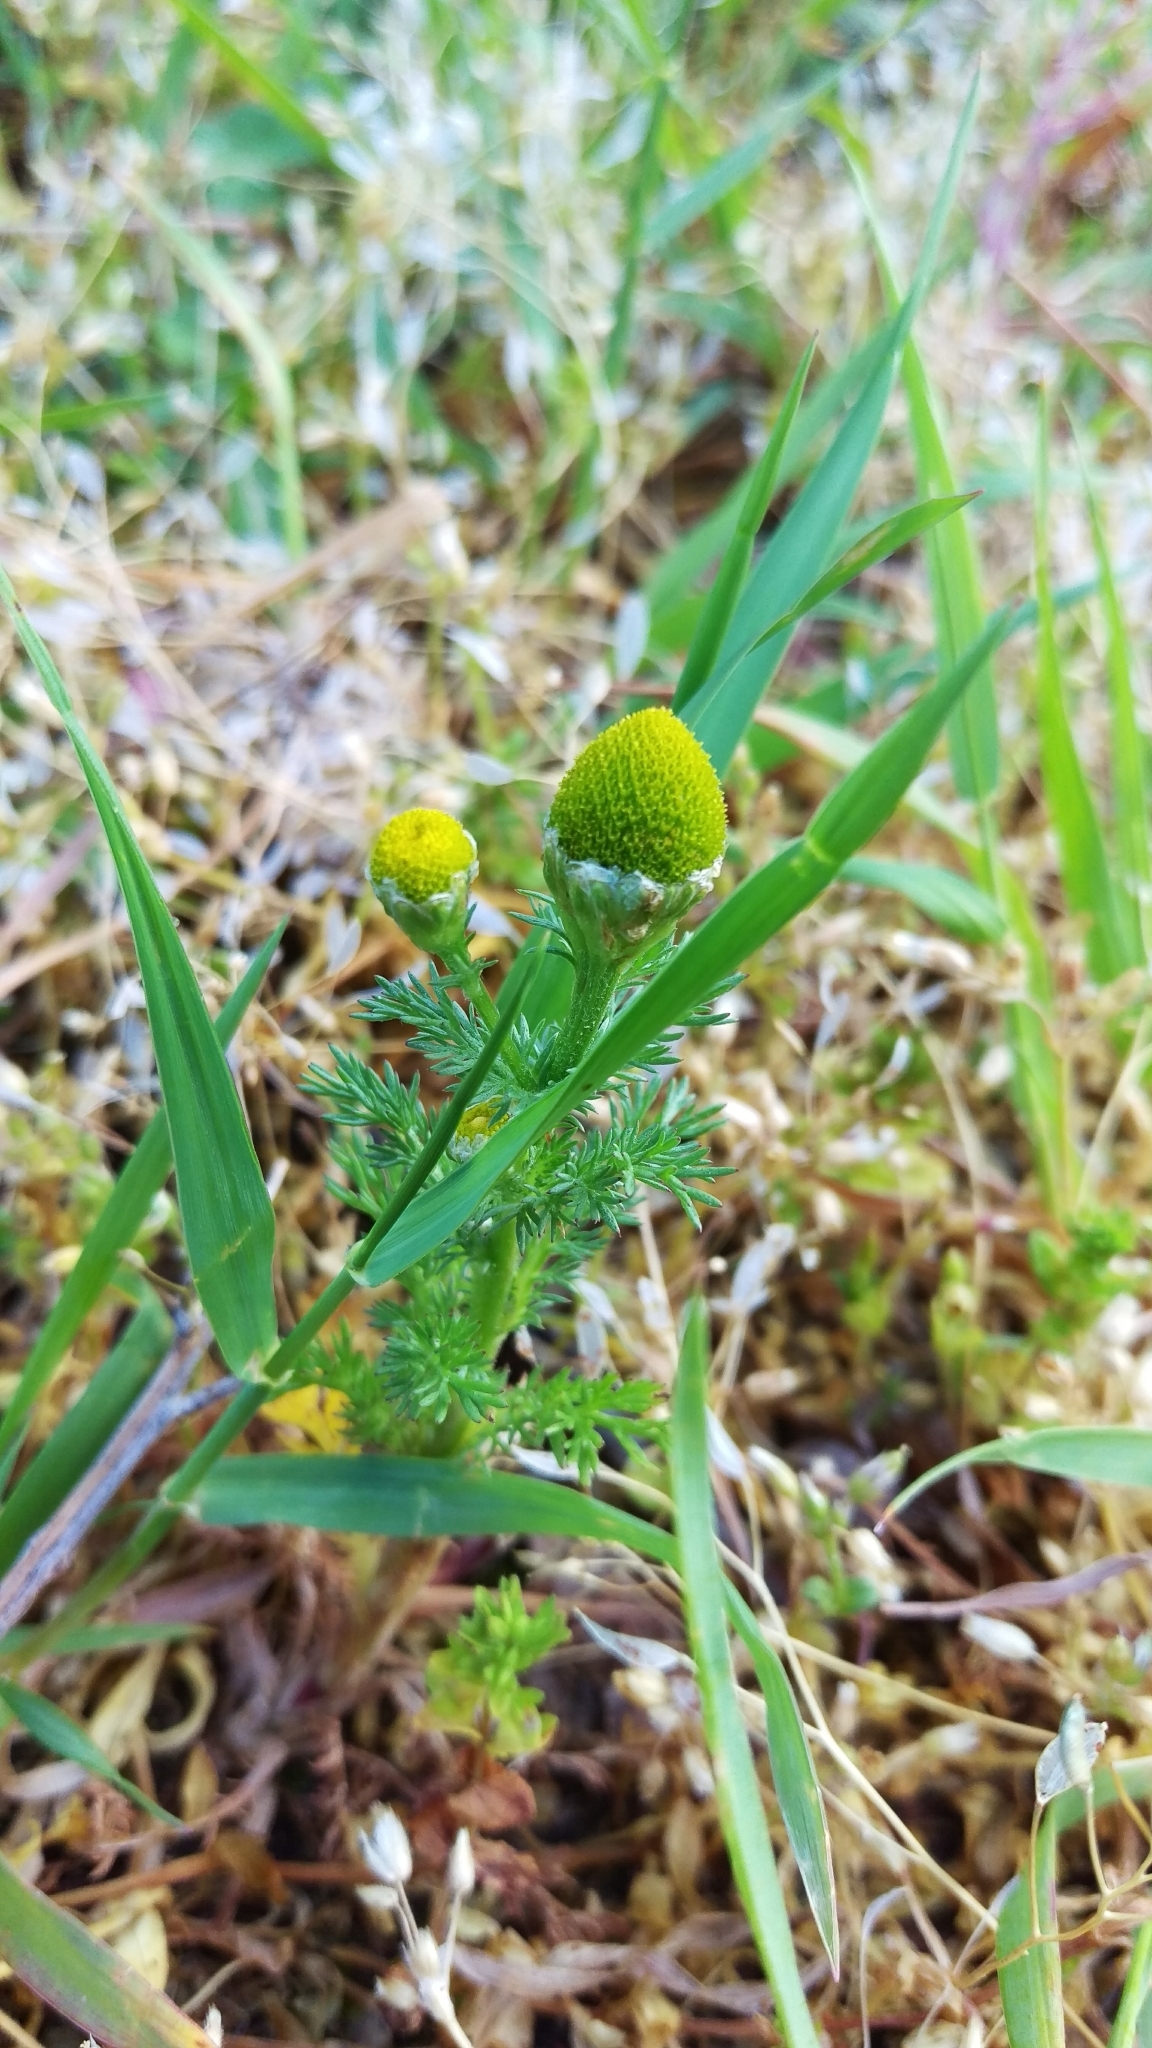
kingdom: Plantae
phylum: Tracheophyta
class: Magnoliopsida
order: Asterales
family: Asteraceae
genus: Matricaria
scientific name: Matricaria discoidea
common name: Disc mayweed
